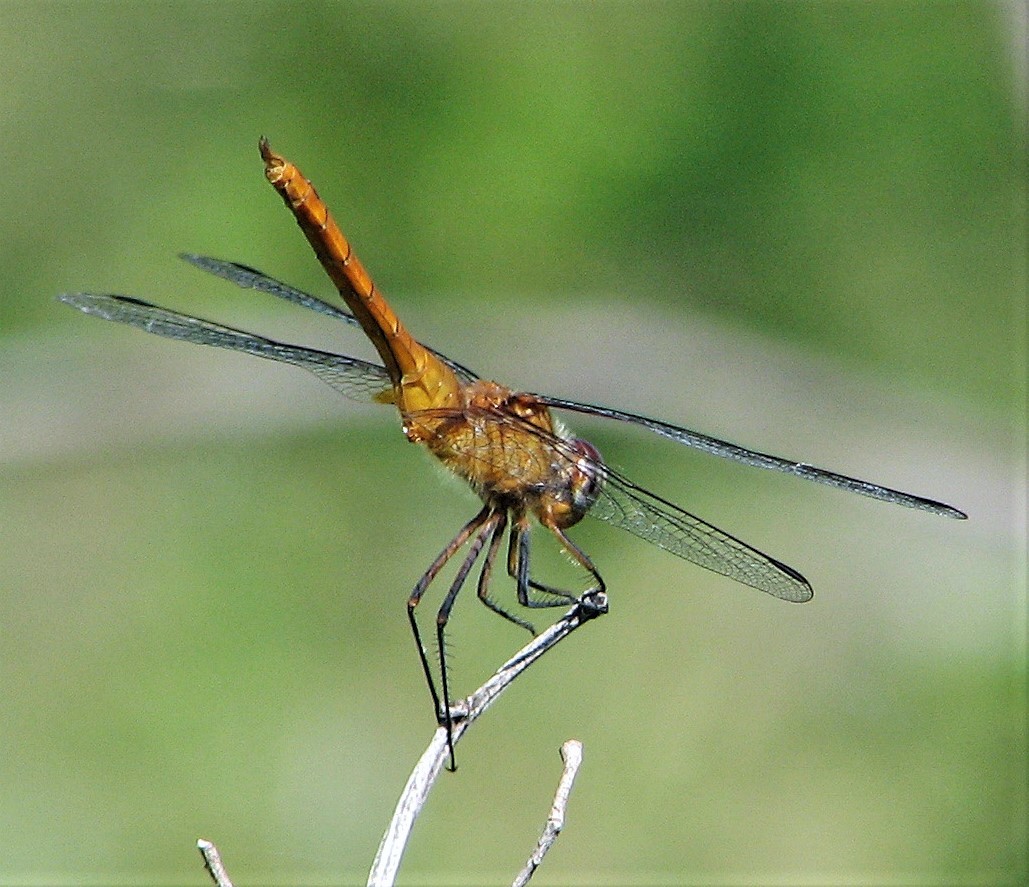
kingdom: Animalia
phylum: Arthropoda
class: Insecta
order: Odonata
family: Libellulidae
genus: Brachymesia
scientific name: Brachymesia furcata
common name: Red-taled pennant
